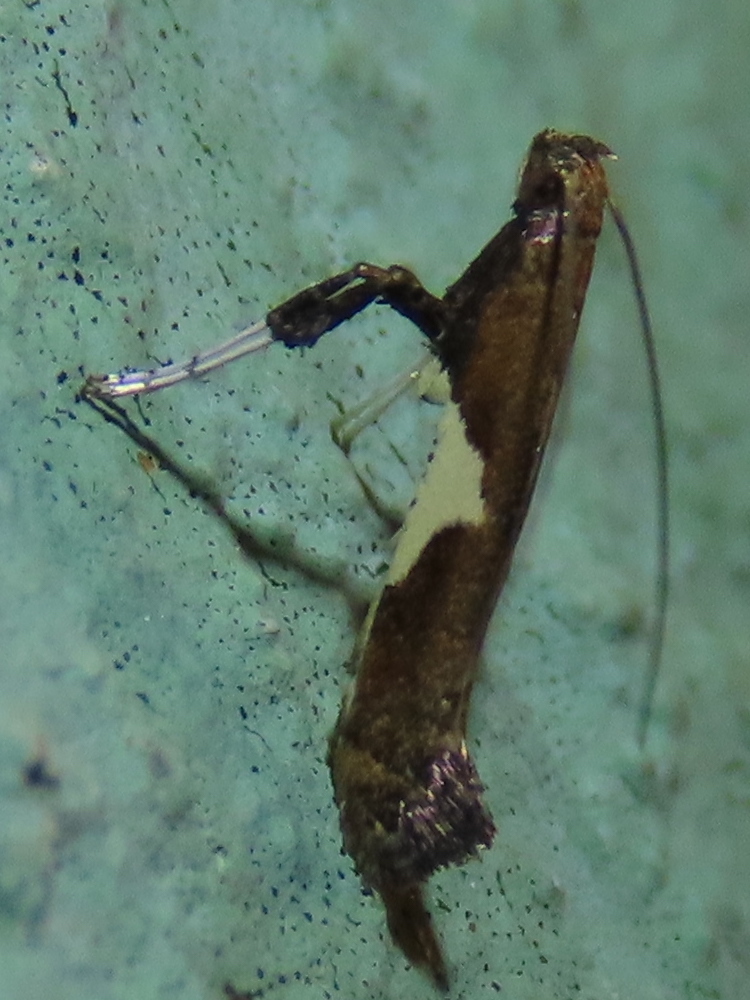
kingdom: Animalia
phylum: Arthropoda
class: Insecta
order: Lepidoptera
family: Gracillariidae
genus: Caloptilia
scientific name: Caloptilia stigmatella
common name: White-triangle slender
